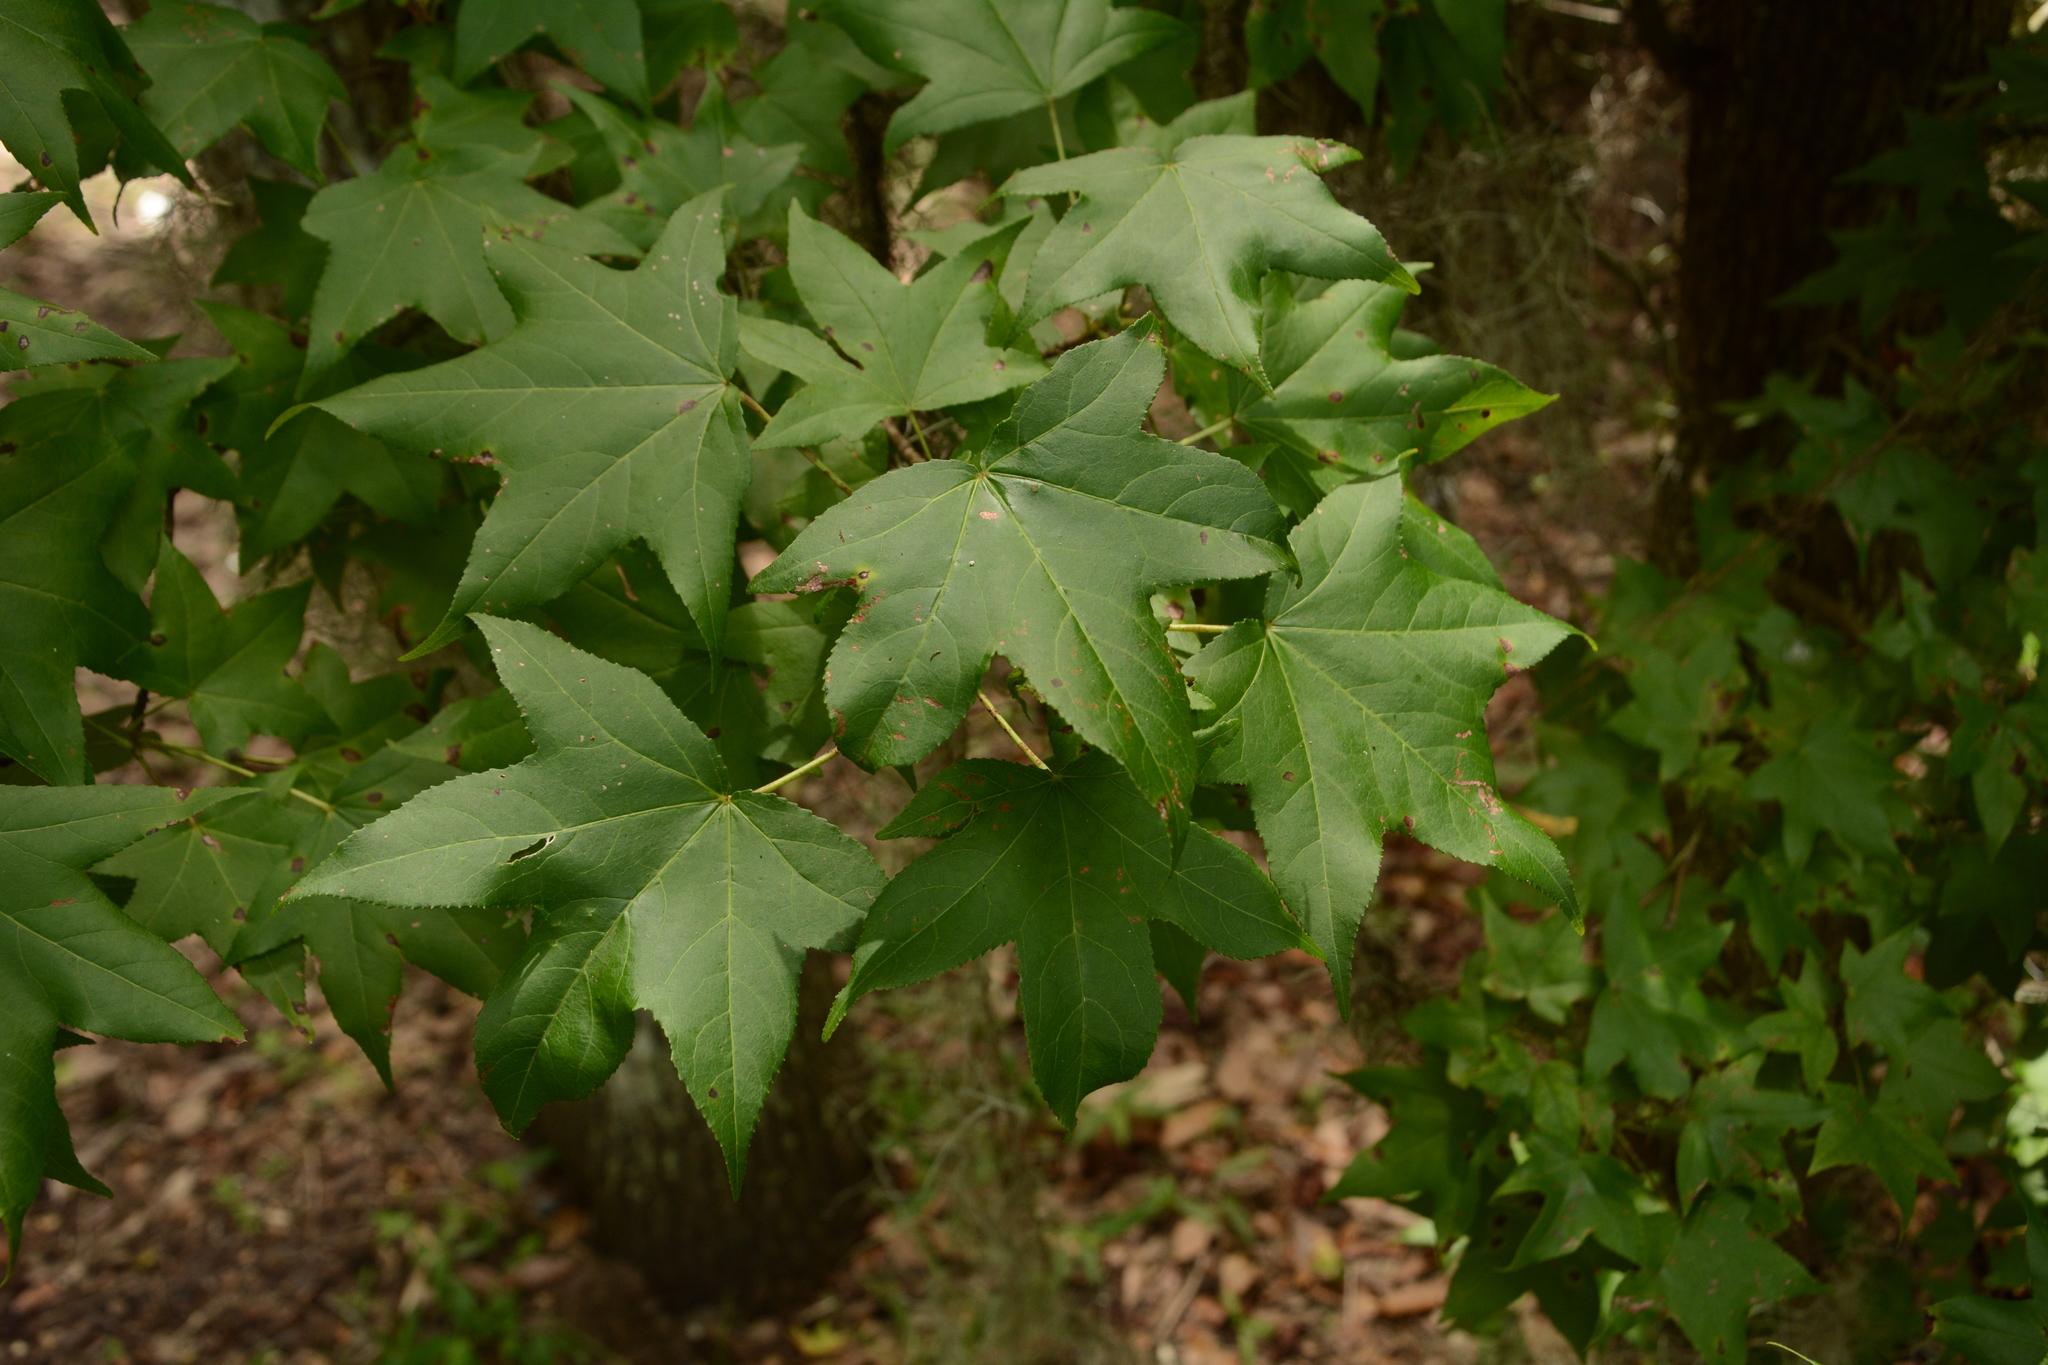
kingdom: Plantae
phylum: Tracheophyta
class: Magnoliopsida
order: Saxifragales
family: Altingiaceae
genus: Liquidambar
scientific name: Liquidambar styraciflua
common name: Sweet gum
